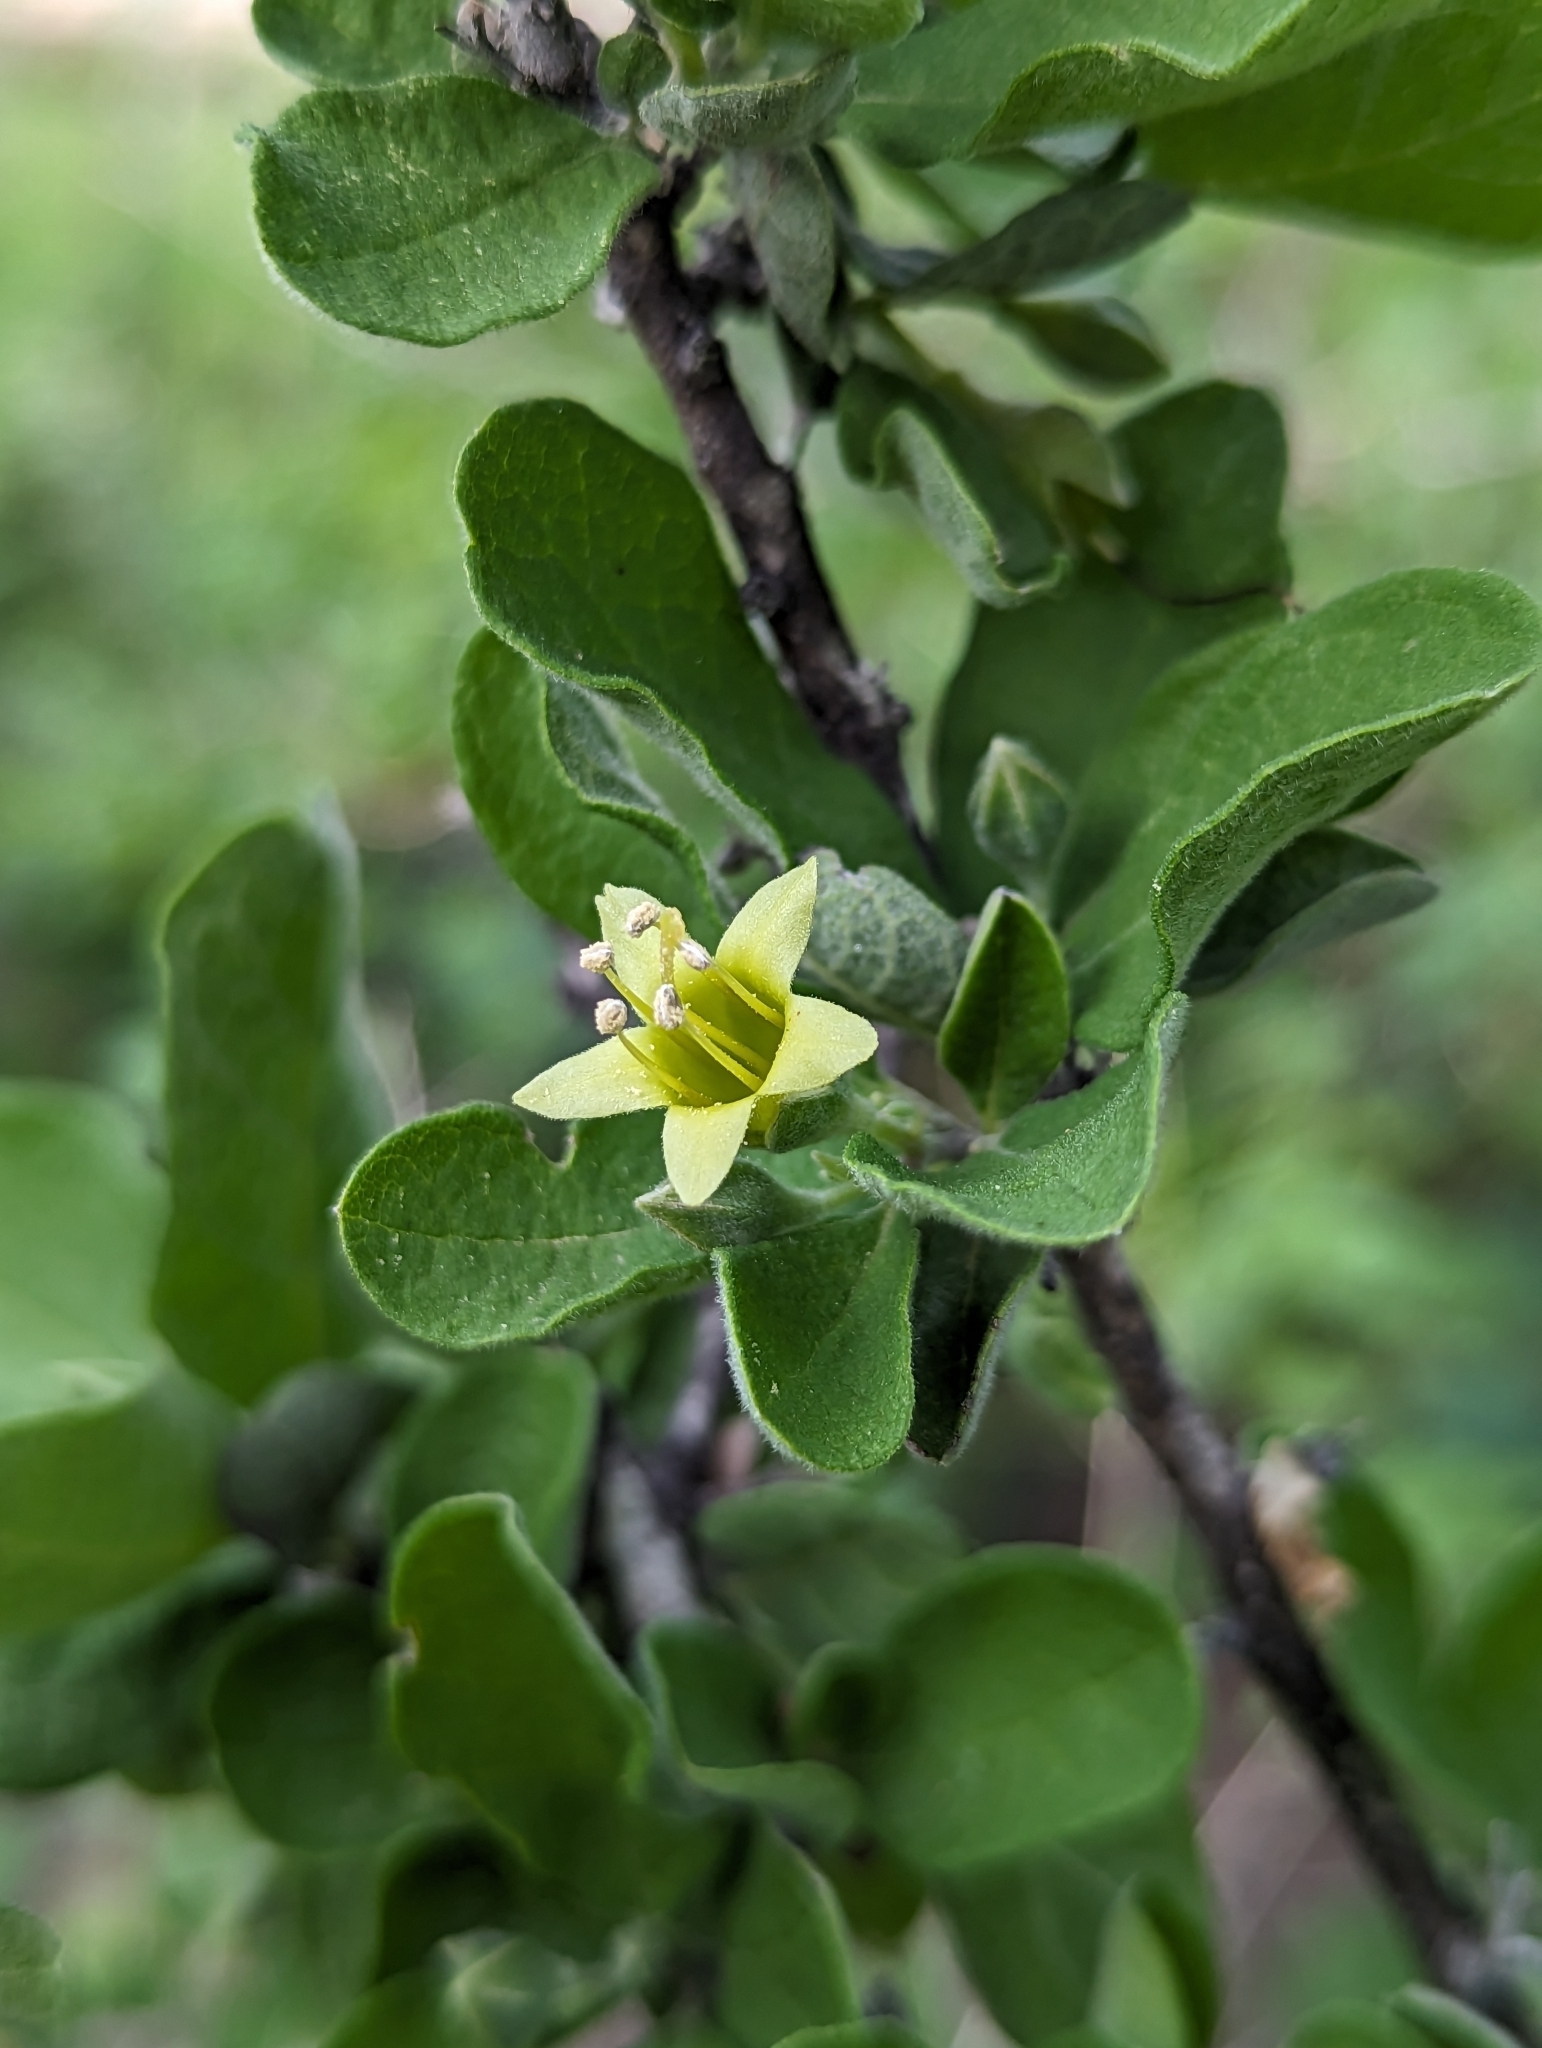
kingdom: Plantae
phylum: Tracheophyta
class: Magnoliopsida
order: Boraginales
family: Ehretiaceae
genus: Bourreria
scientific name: Bourreria sonorae
